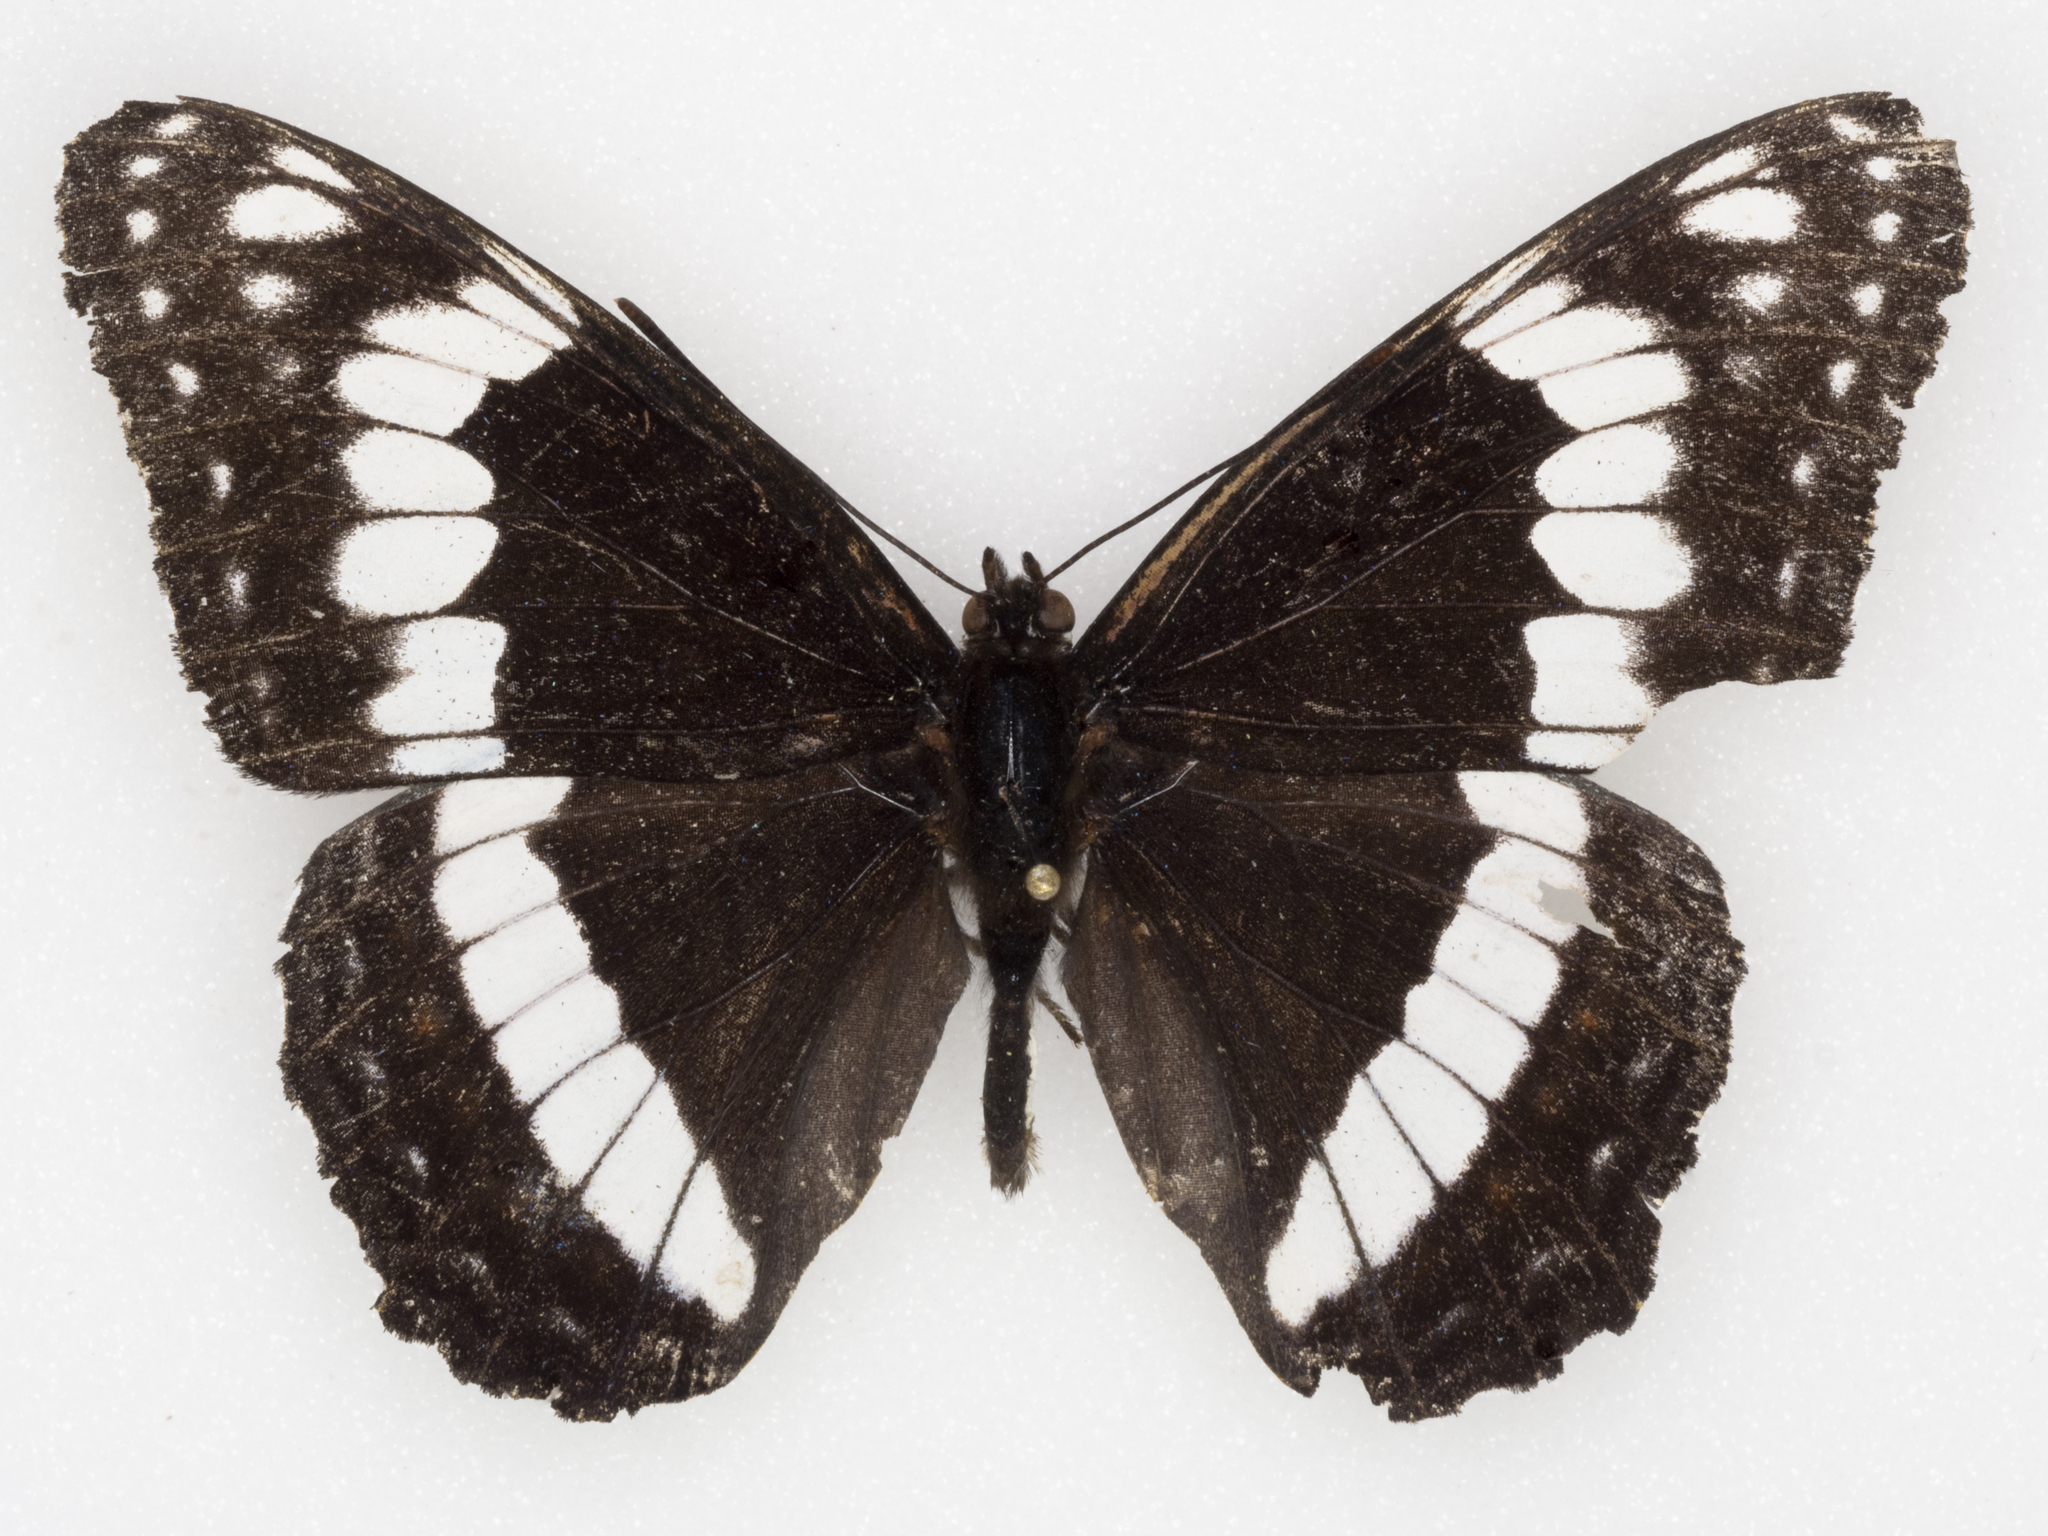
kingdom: Animalia
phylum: Arthropoda
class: Insecta
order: Lepidoptera
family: Nymphalidae
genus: Limenitis
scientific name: Limenitis weidemeyerii
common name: Weidemeyer's admiral
